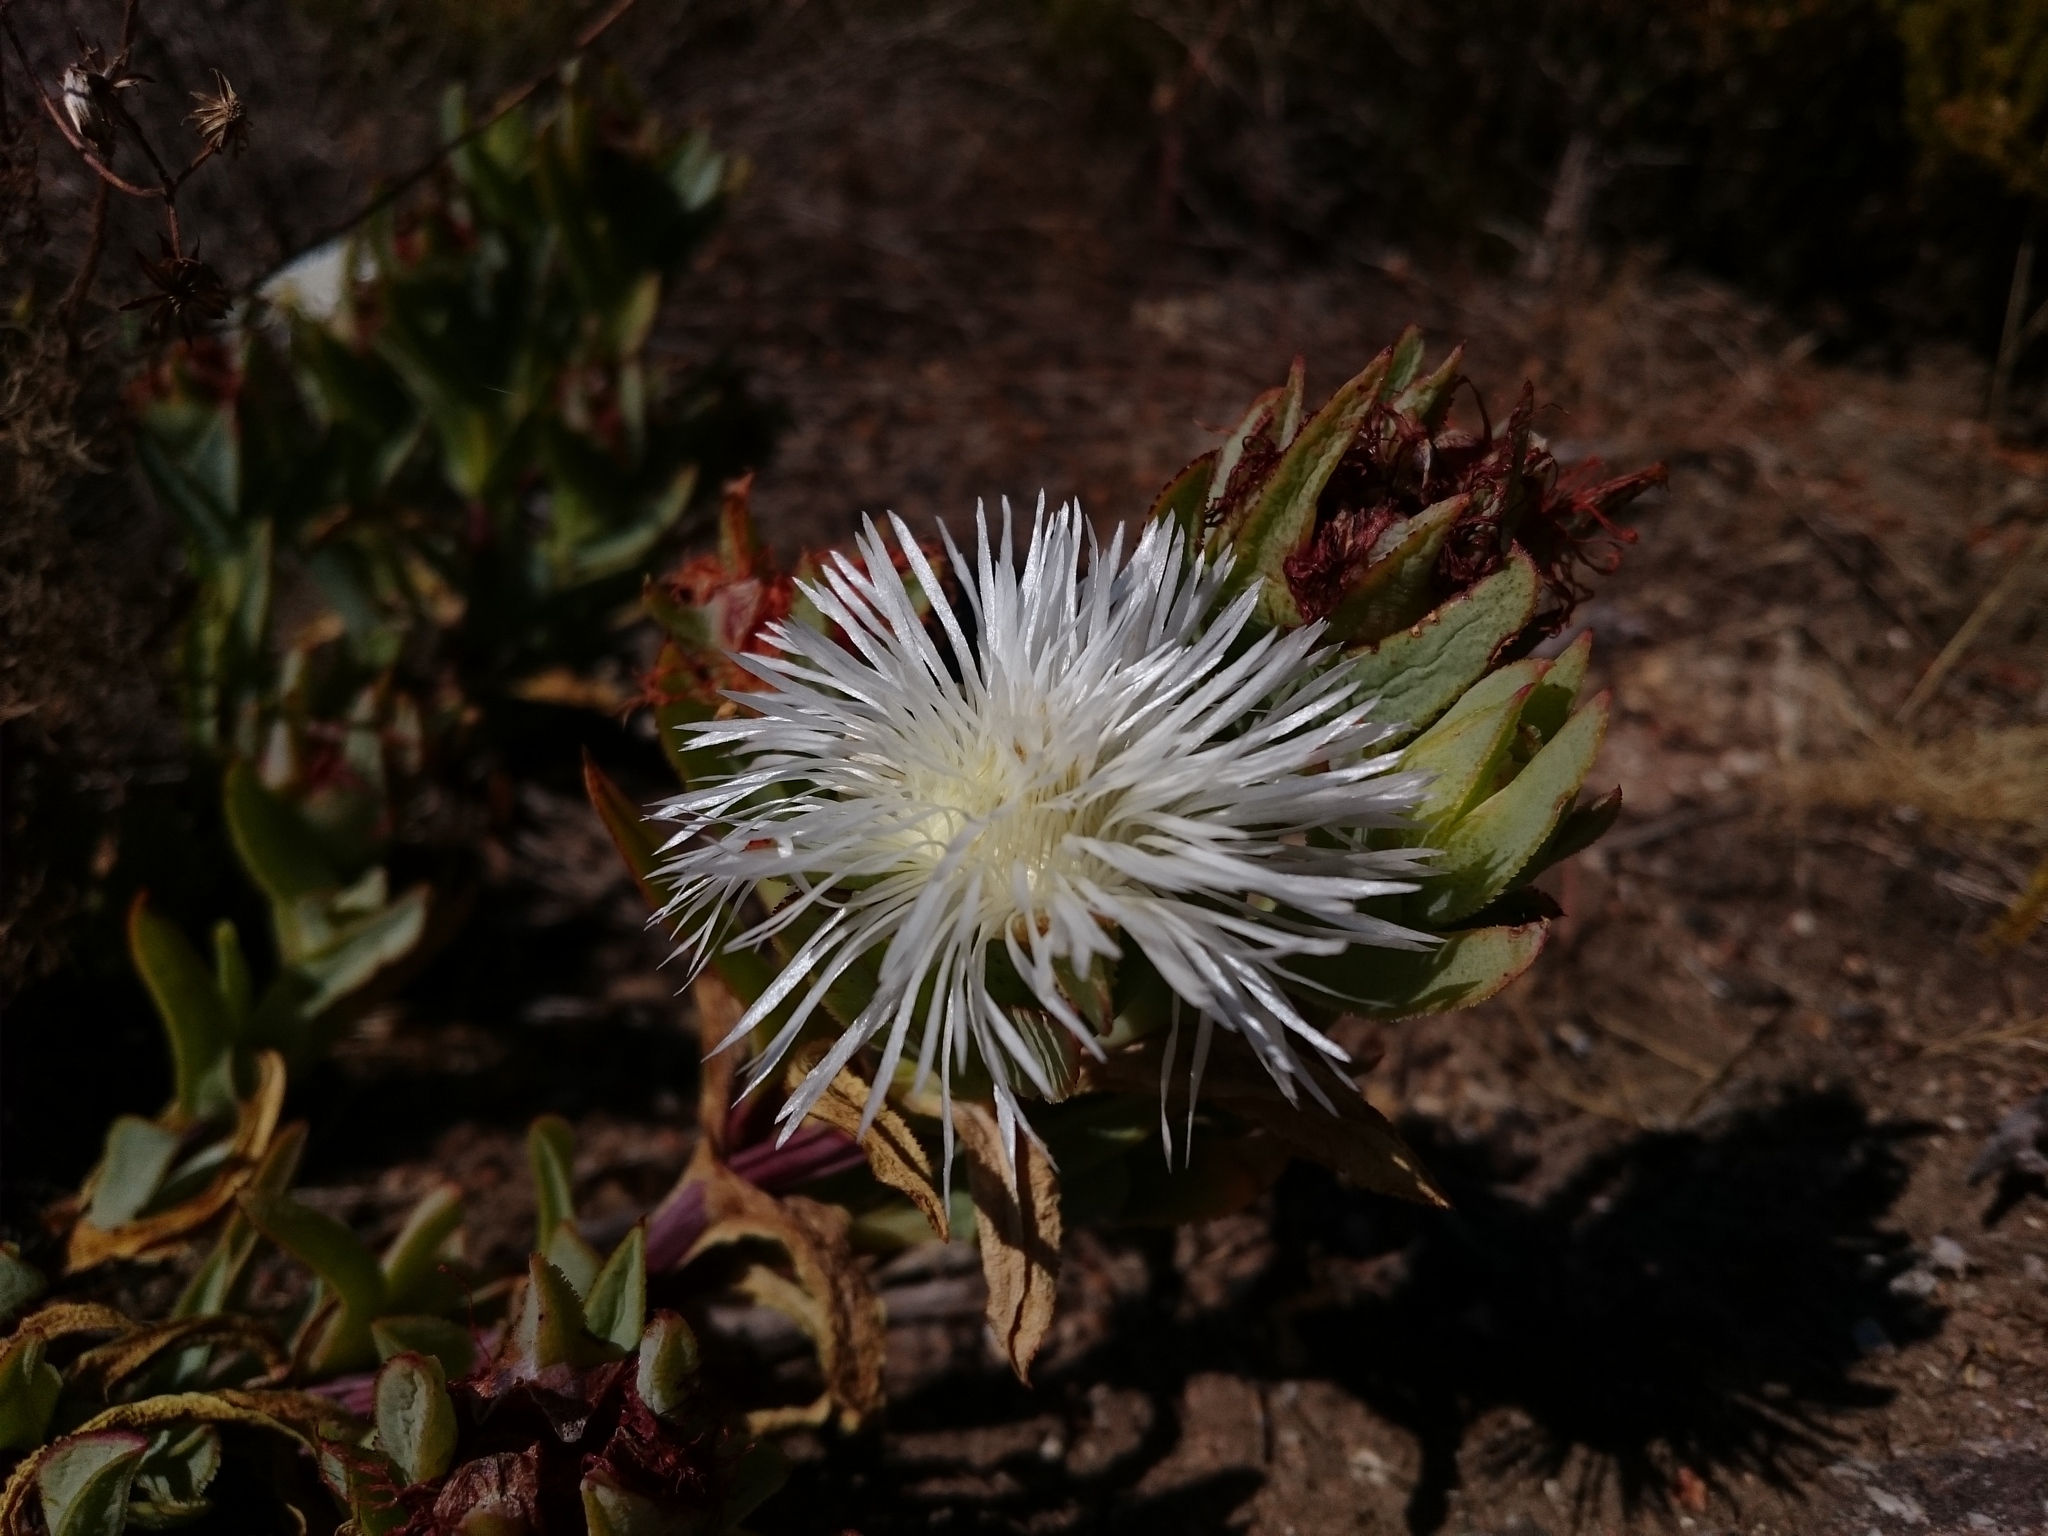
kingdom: Plantae
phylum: Tracheophyta
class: Magnoliopsida
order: Caryophyllales
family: Aizoaceae
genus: Erepsia
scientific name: Erepsia lacera
